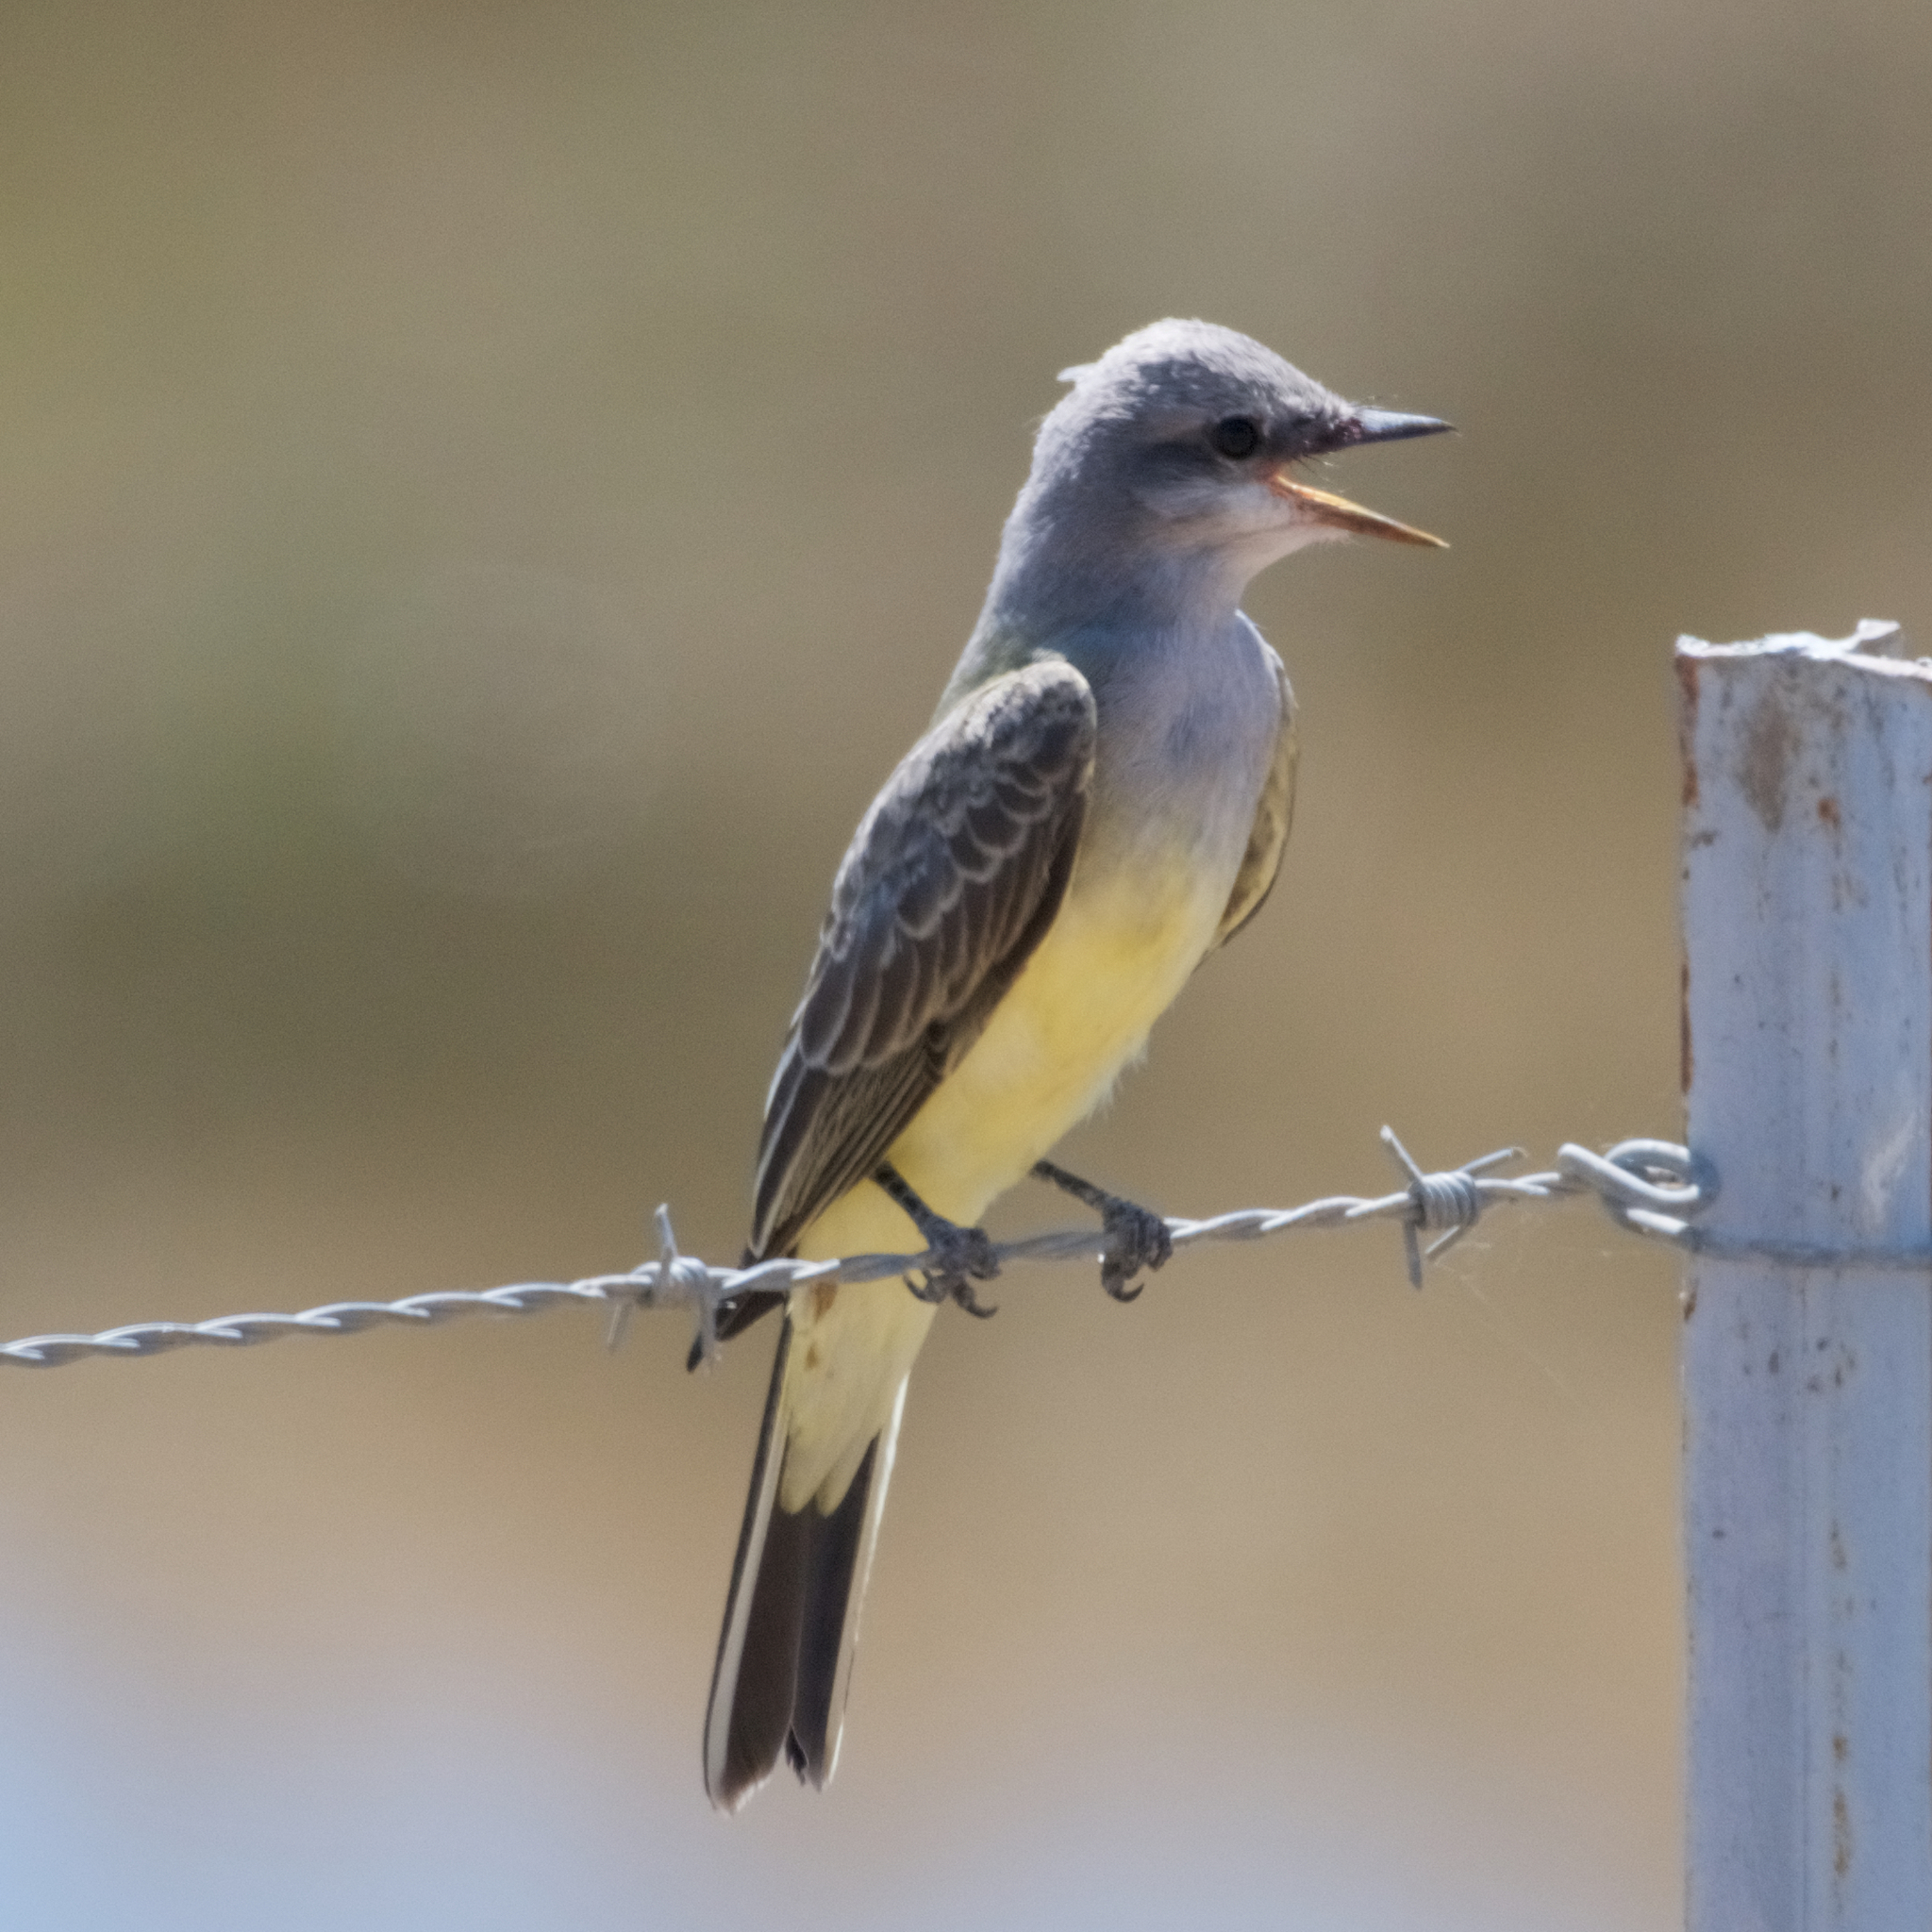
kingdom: Animalia
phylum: Chordata
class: Aves
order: Passeriformes
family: Tyrannidae
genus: Tyrannus
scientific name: Tyrannus verticalis
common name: Western kingbird
